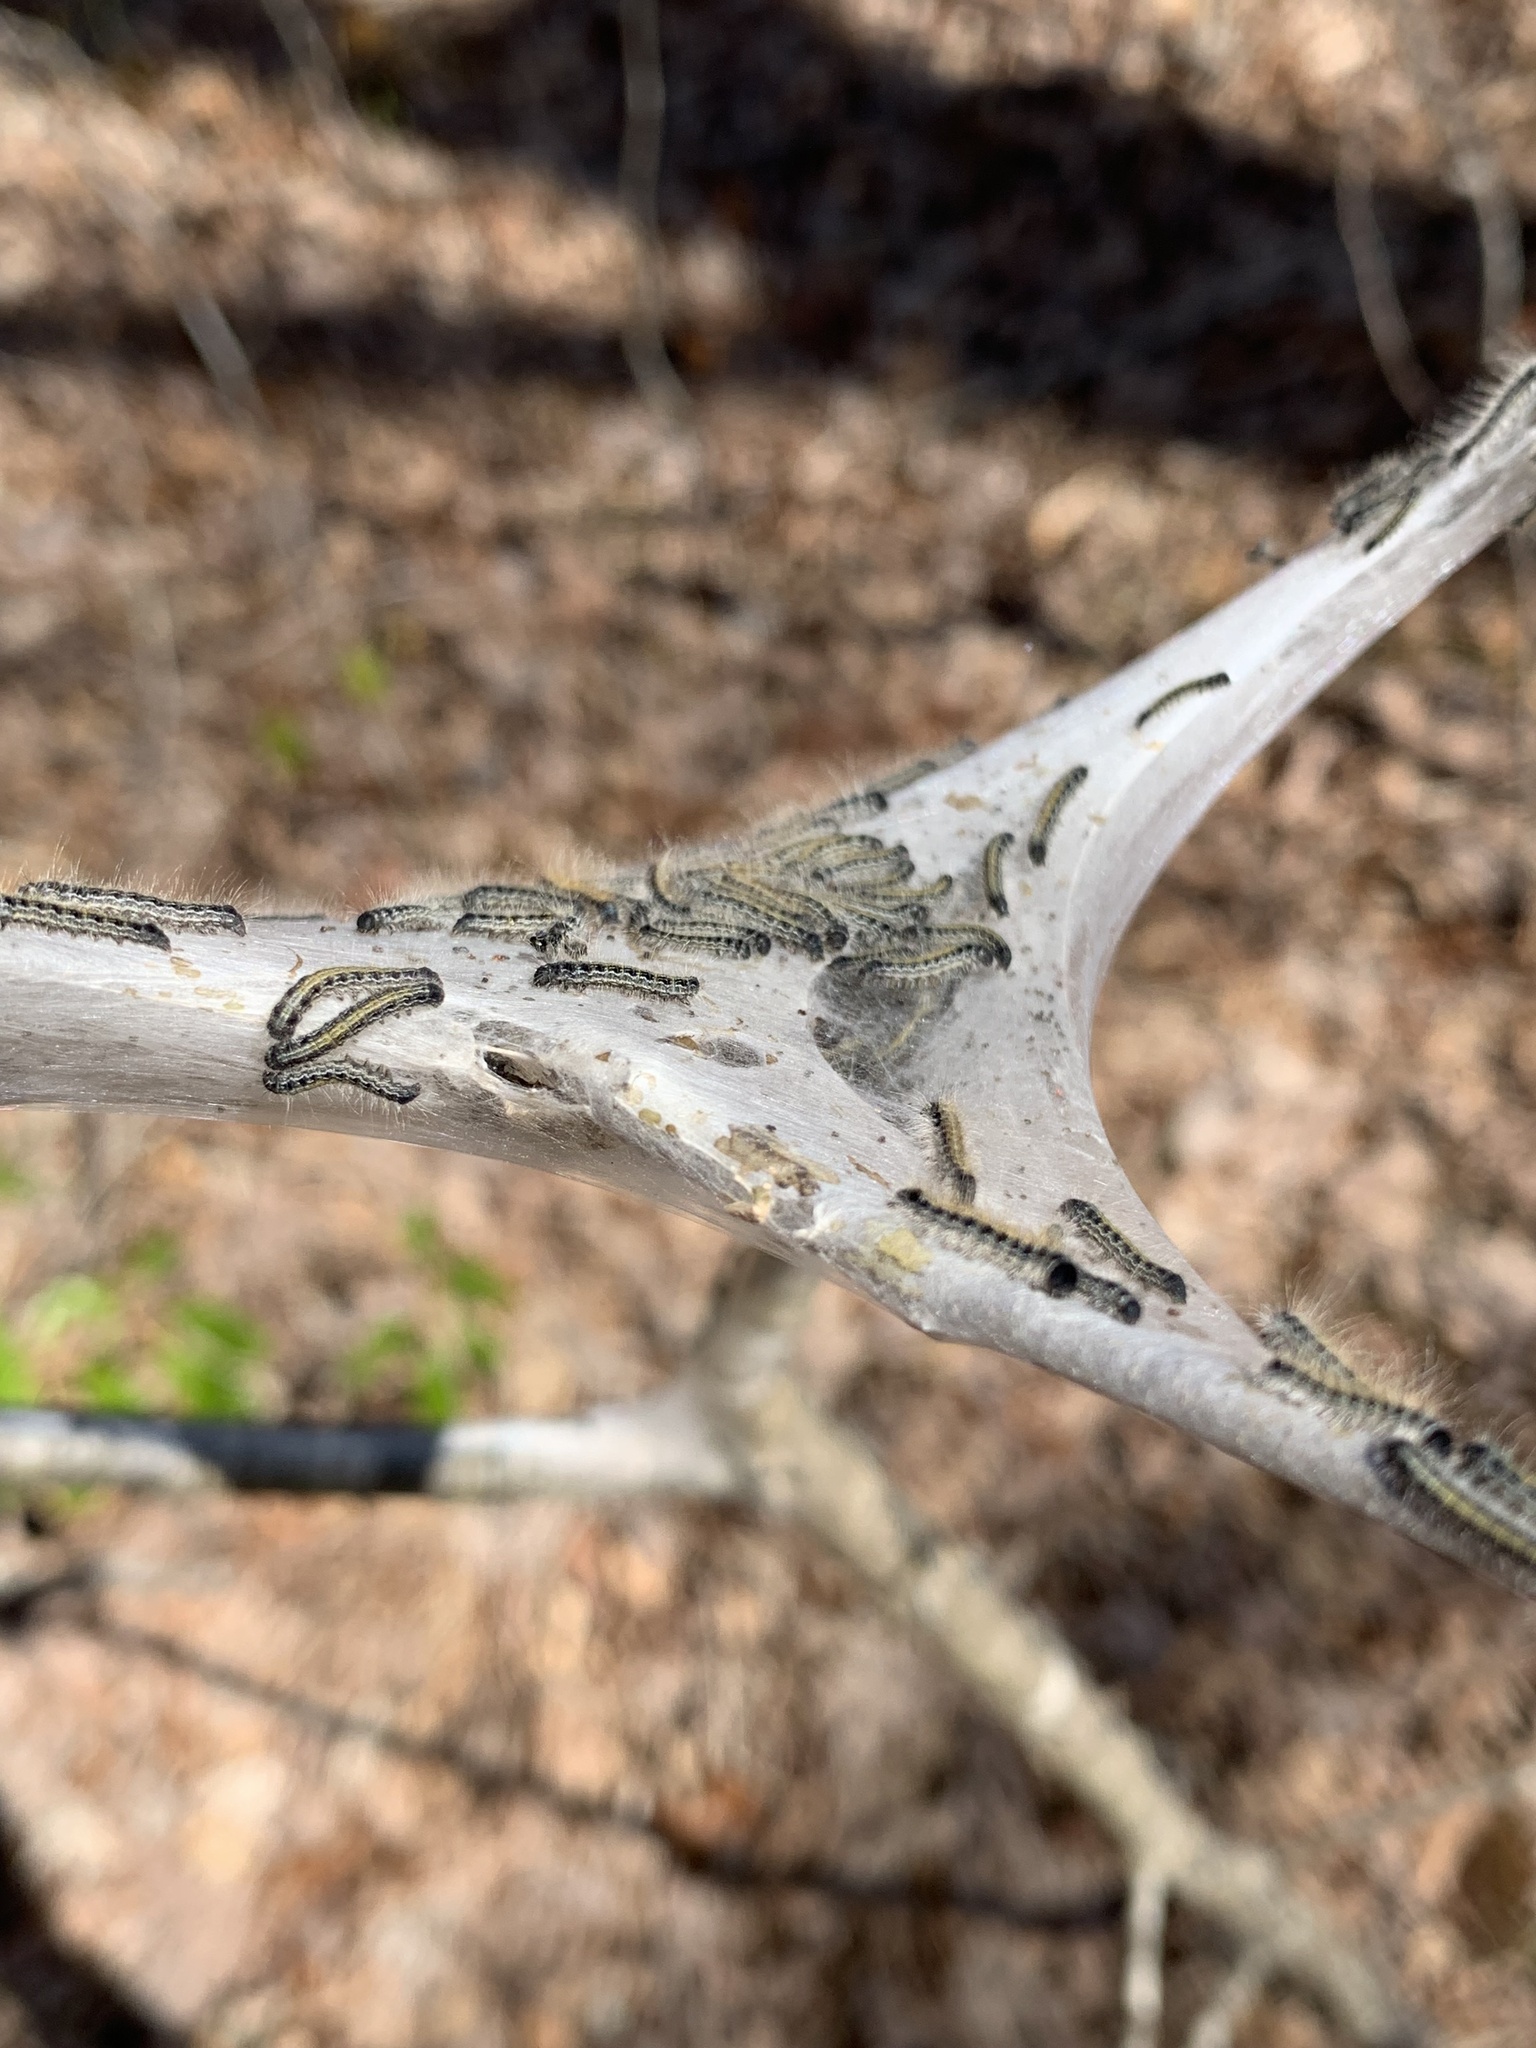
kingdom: Animalia
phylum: Arthropoda
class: Insecta
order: Lepidoptera
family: Lasiocampidae
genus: Malacosoma
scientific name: Malacosoma americana
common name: Eastern tent caterpillar moth
